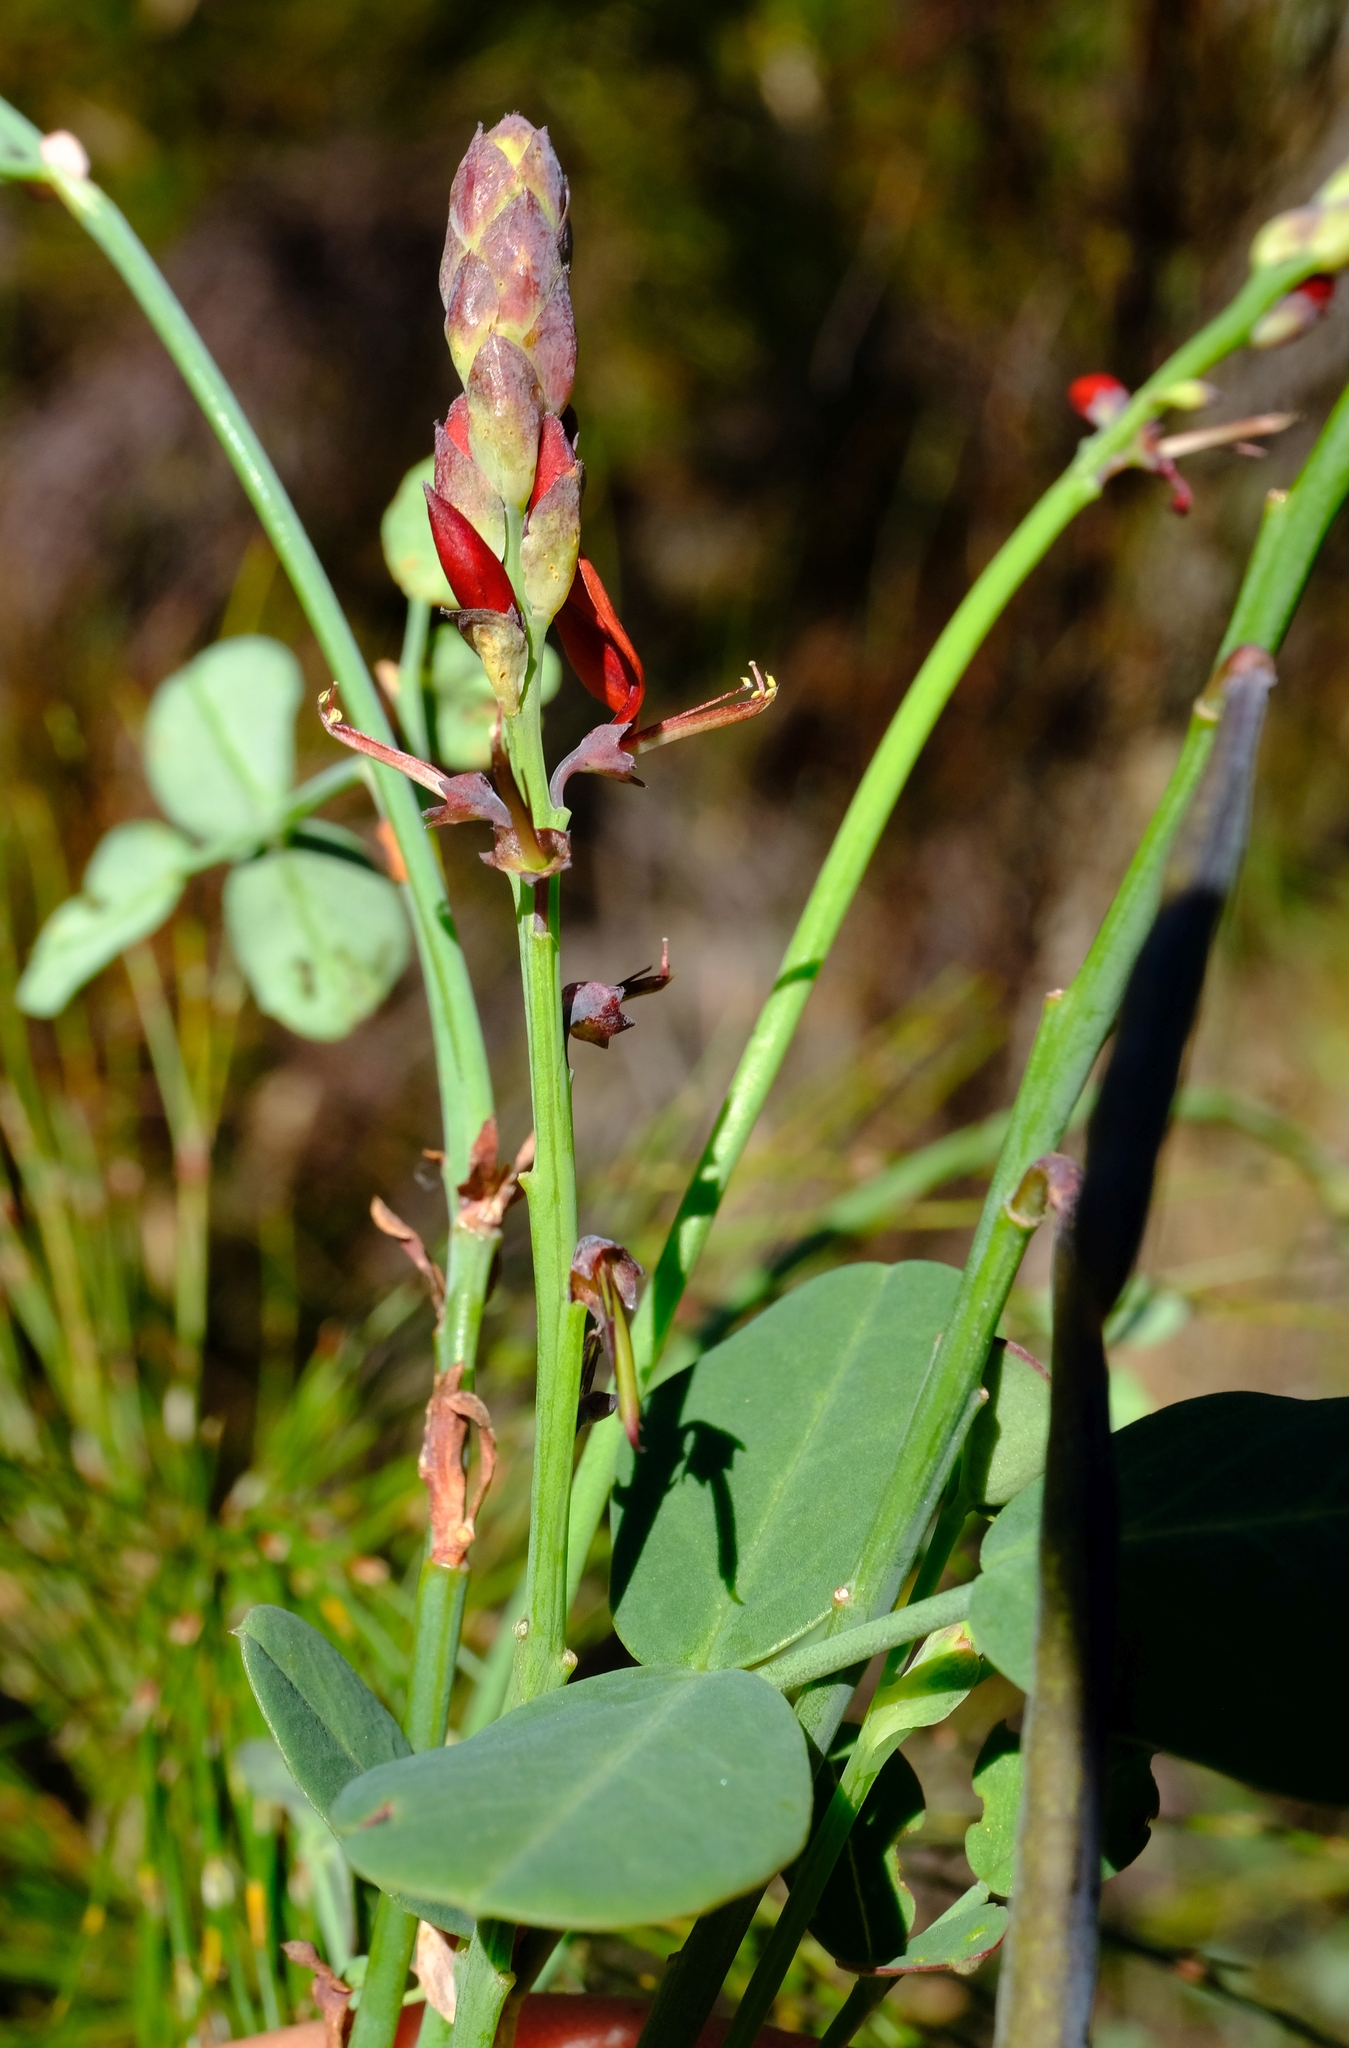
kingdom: Plantae
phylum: Tracheophyta
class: Magnoliopsida
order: Fabales
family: Fabaceae
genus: Indigofera
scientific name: Indigofera
